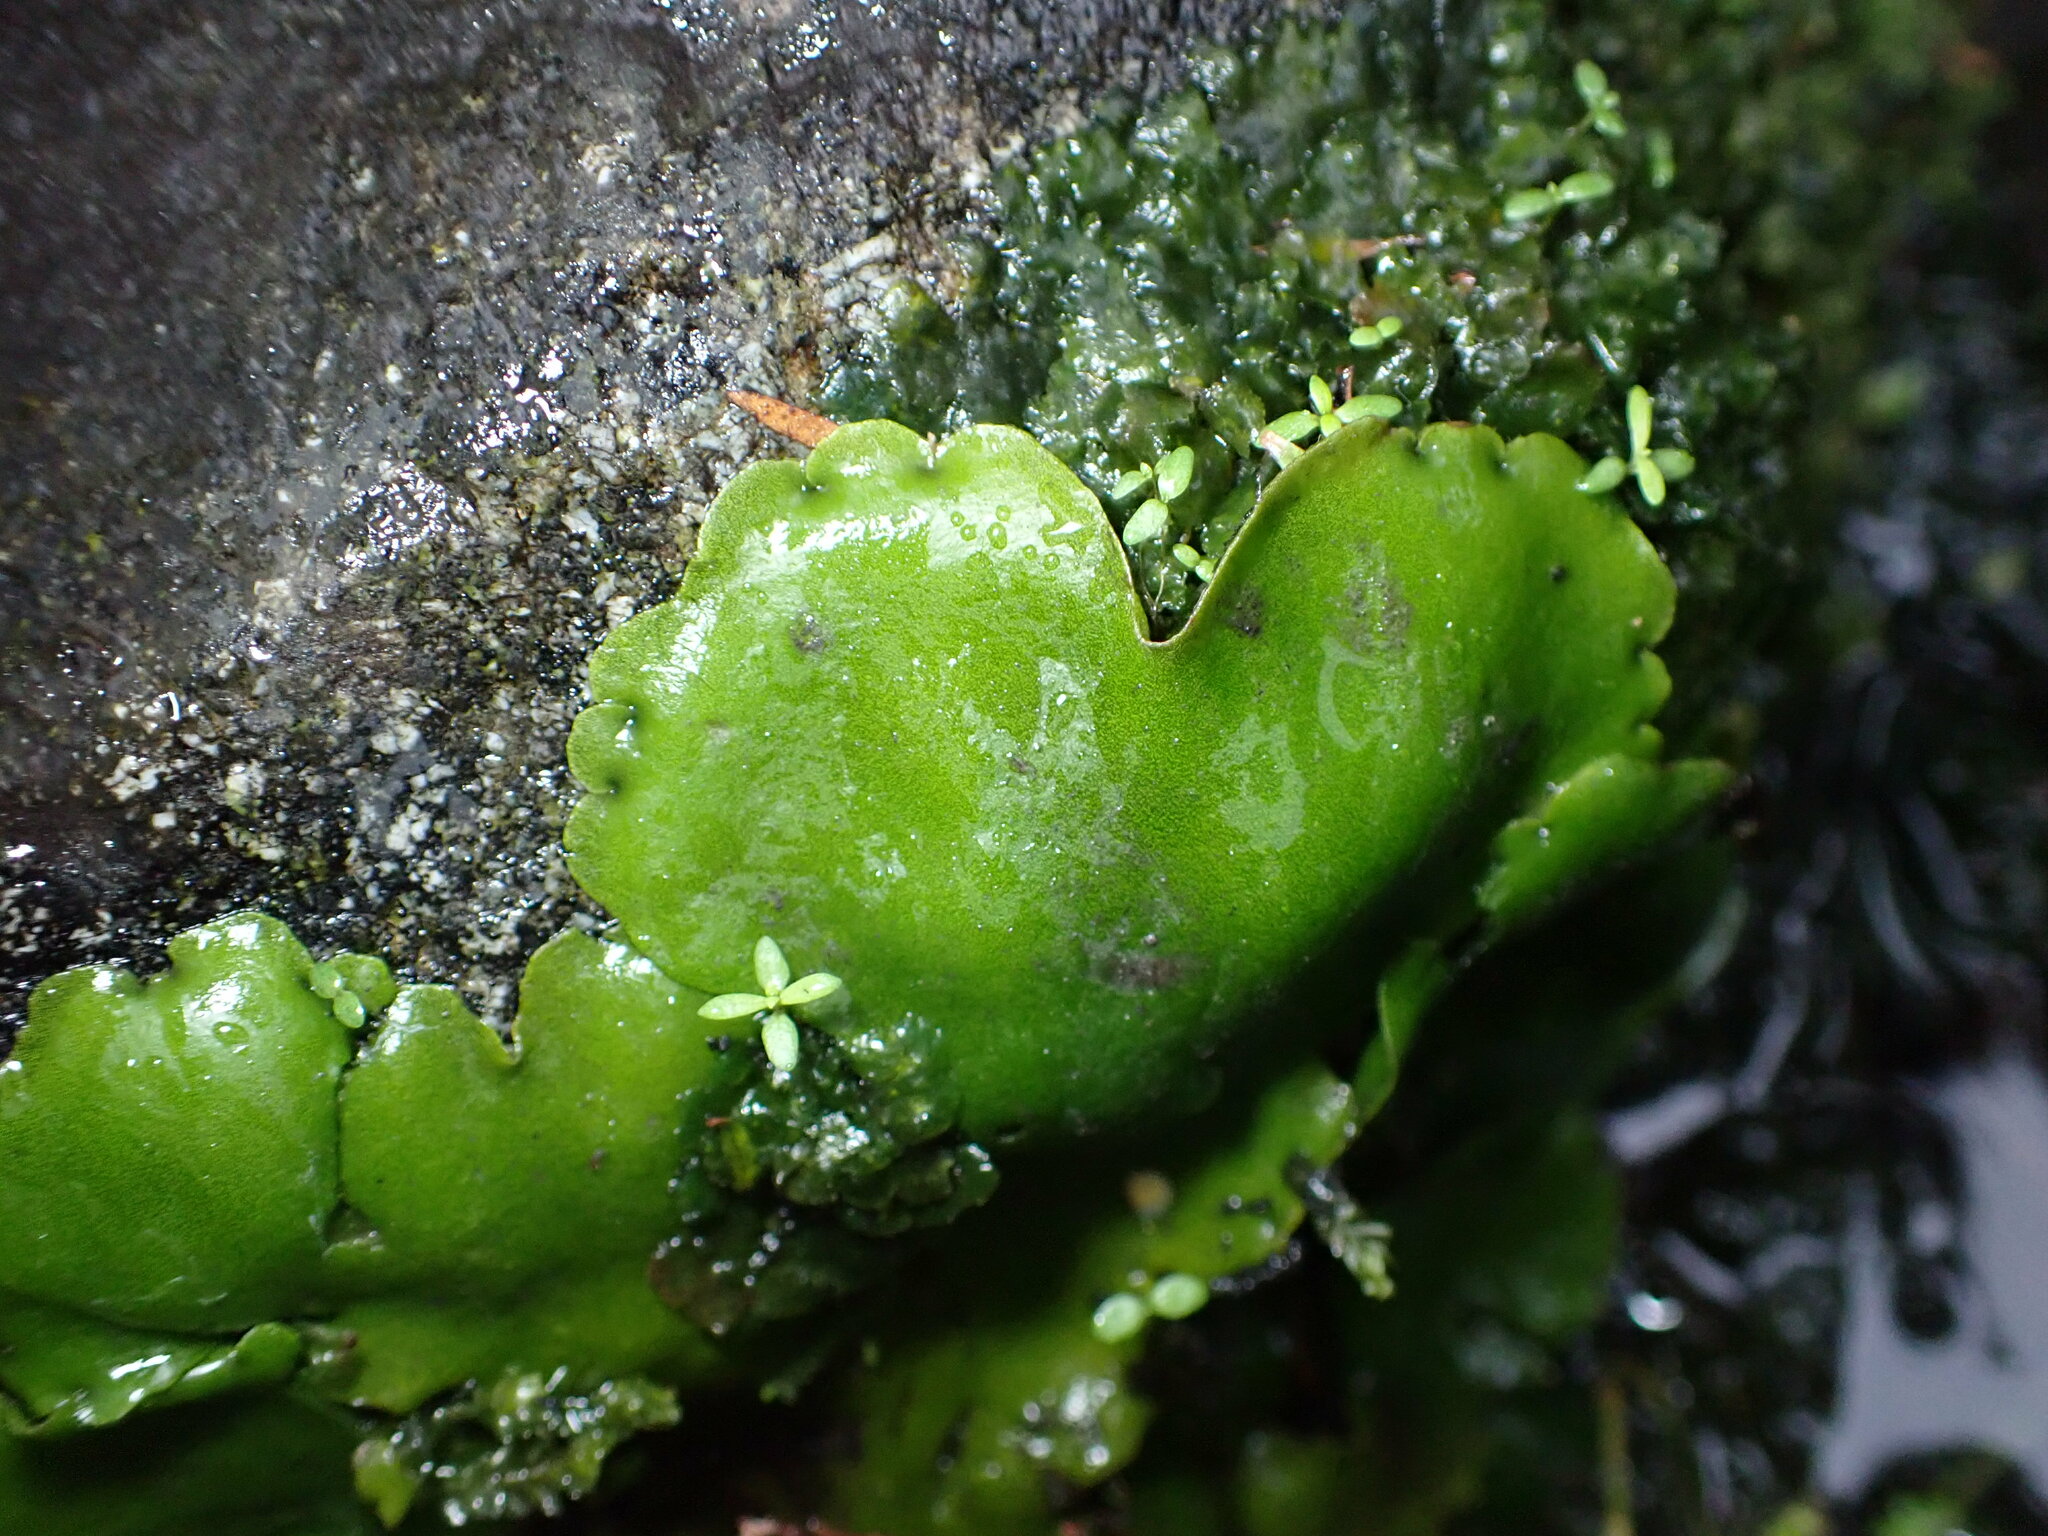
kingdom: Plantae
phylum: Marchantiophyta
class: Marchantiopsida
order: Marchantiales
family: Monocleaceae
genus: Monoclea
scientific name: Monoclea forsteri
